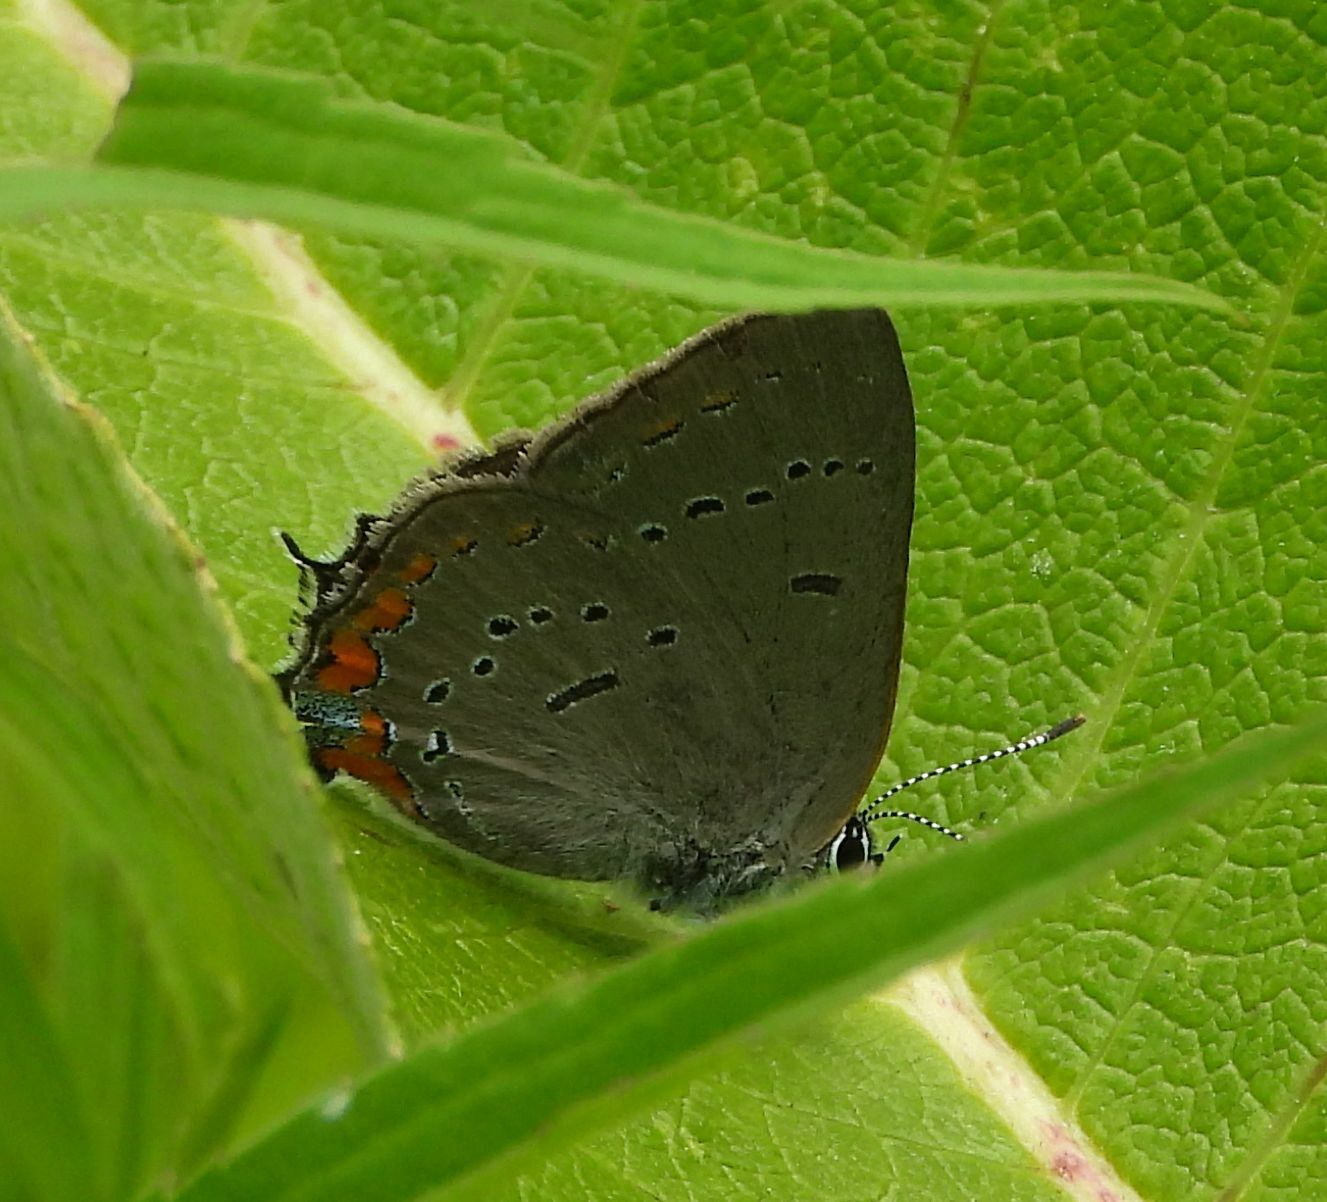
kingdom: Animalia
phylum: Arthropoda
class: Insecta
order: Lepidoptera
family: Lycaenidae
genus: Strymon
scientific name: Strymon acadica
